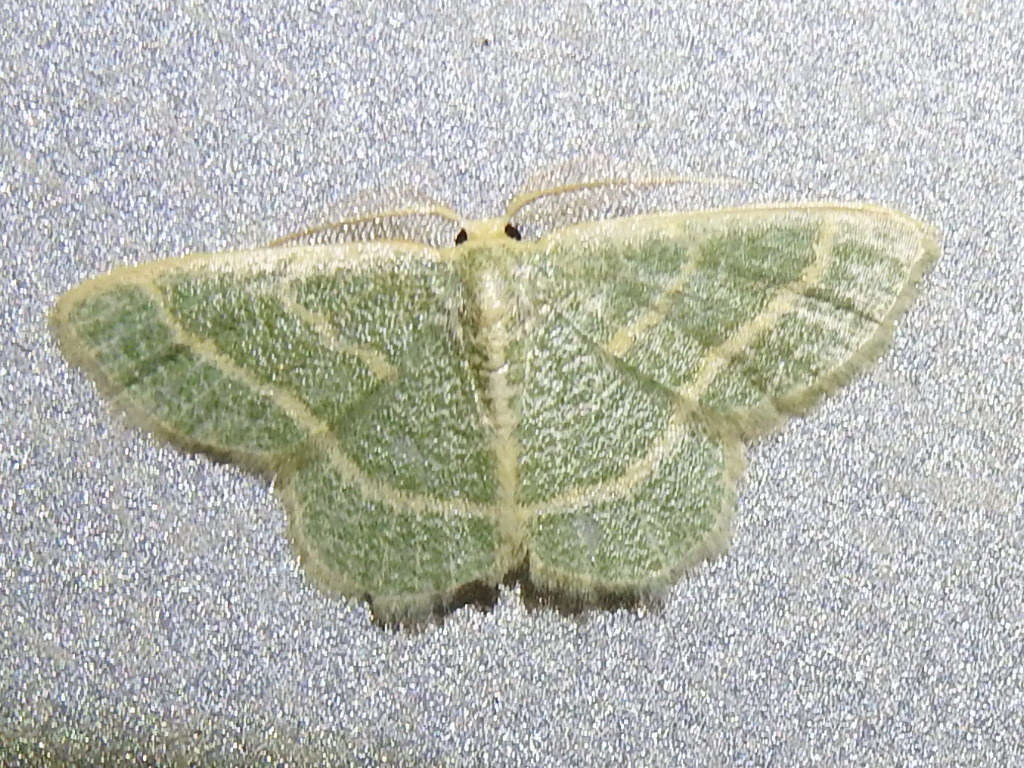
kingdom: Animalia
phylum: Arthropoda
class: Insecta
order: Lepidoptera
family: Geometridae
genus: Chlorochlamys
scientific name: Chlorochlamys chloroleucaria
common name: Blackberry looper
